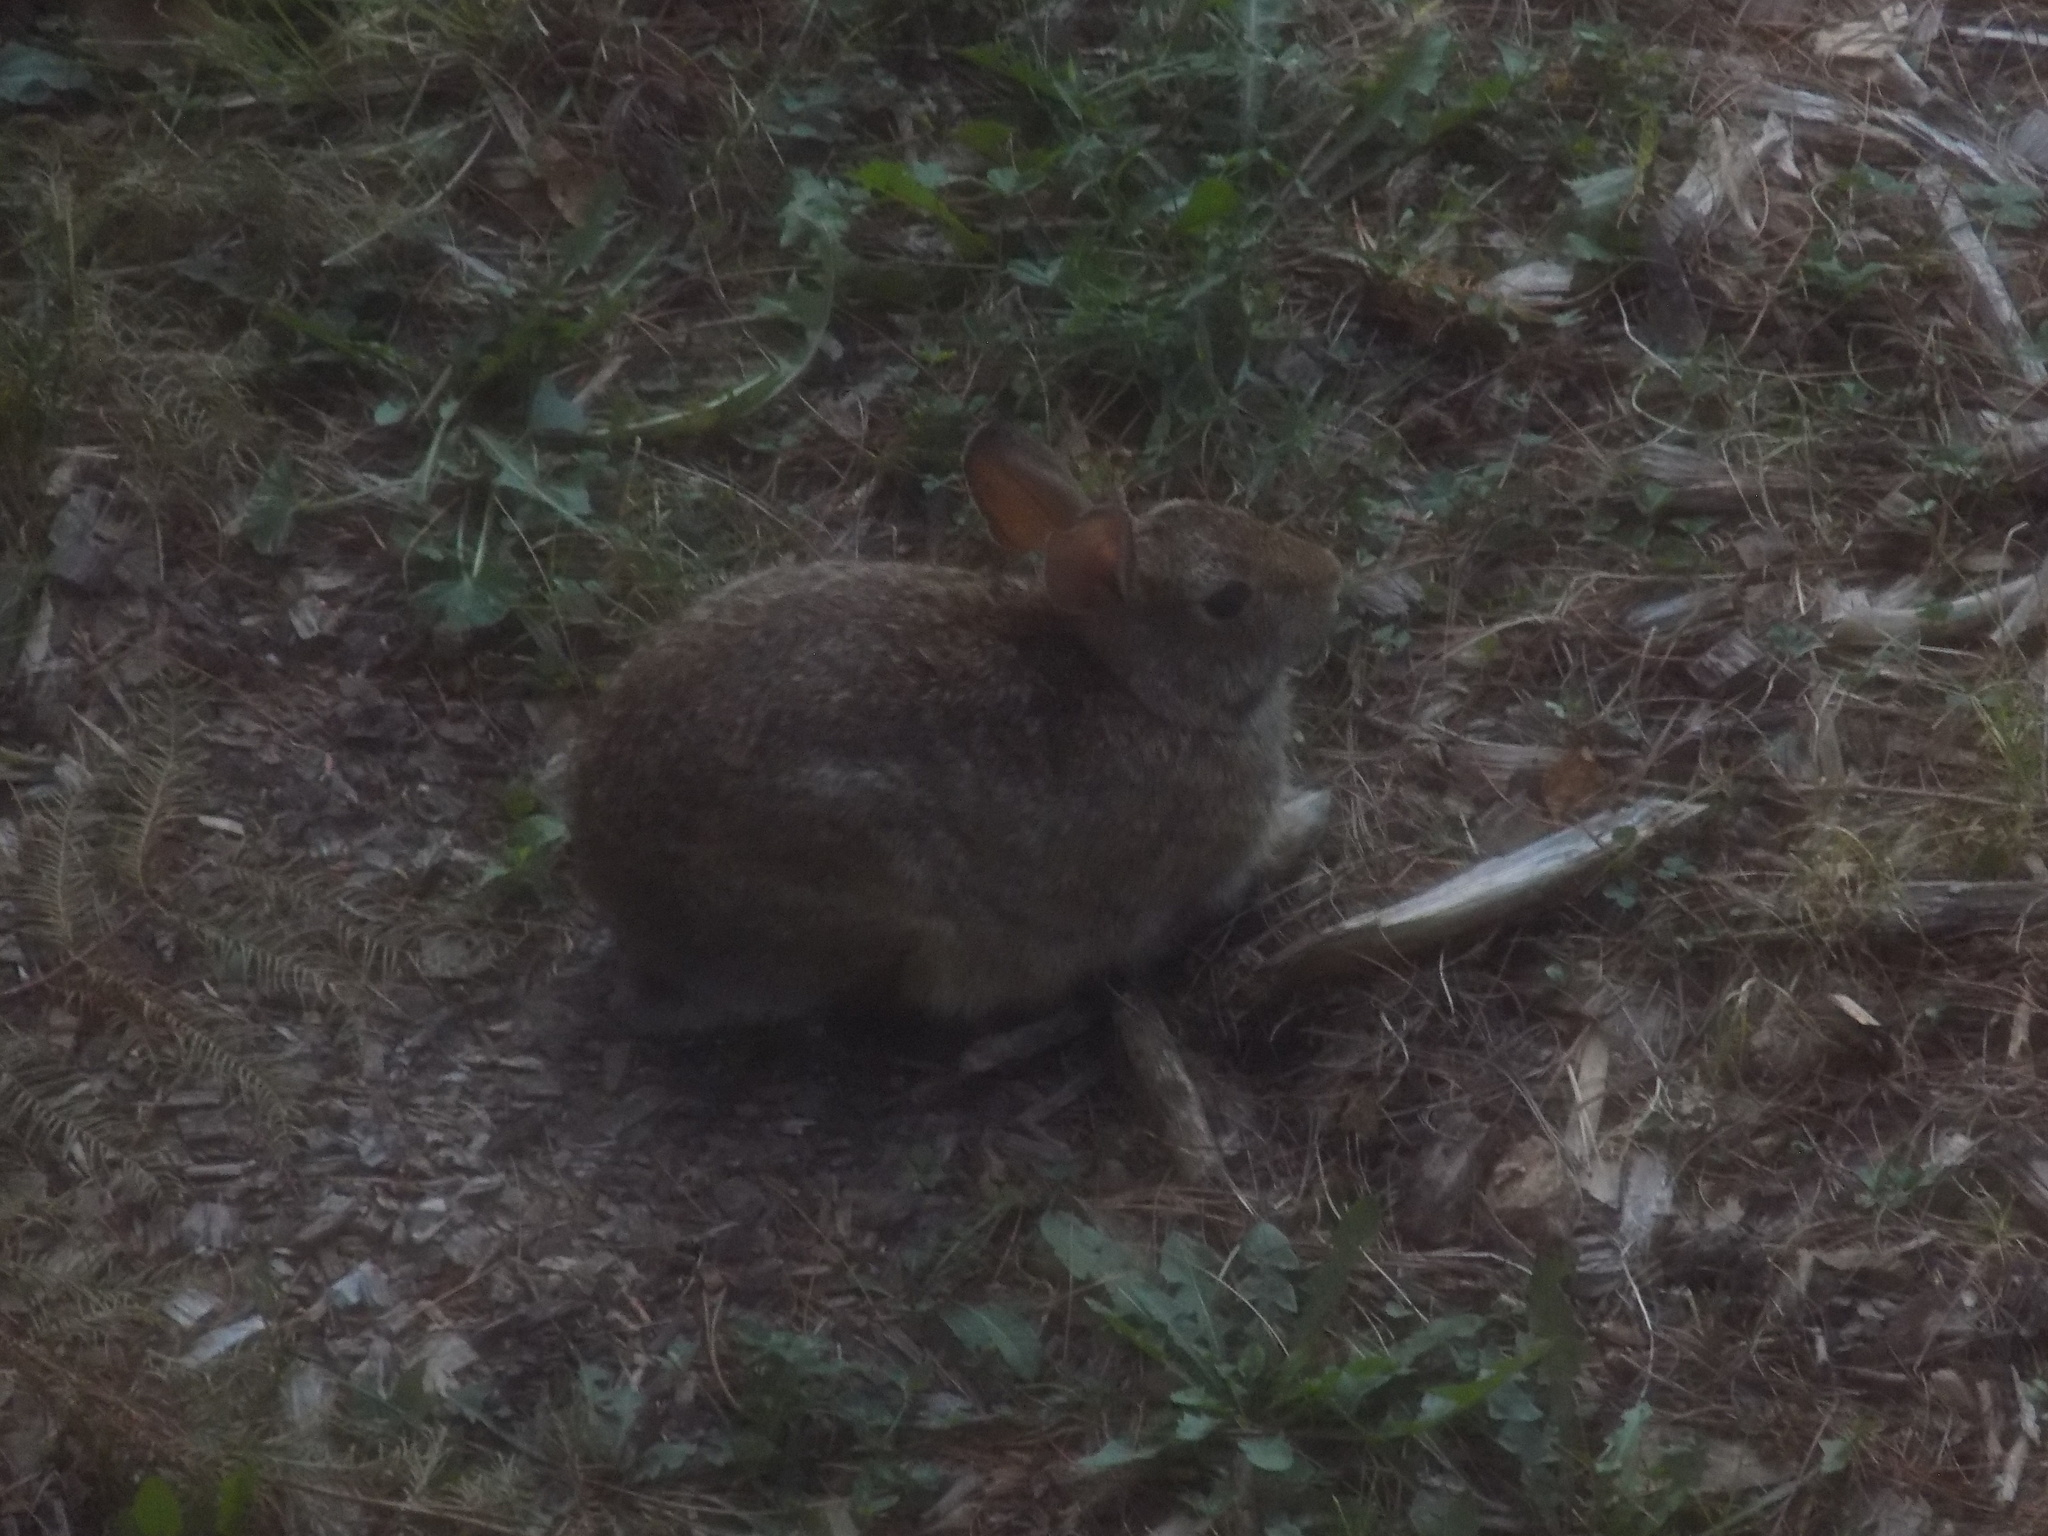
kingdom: Animalia
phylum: Chordata
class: Mammalia
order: Lagomorpha
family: Leporidae
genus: Sylvilagus
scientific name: Sylvilagus floridanus
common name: Eastern cottontail
